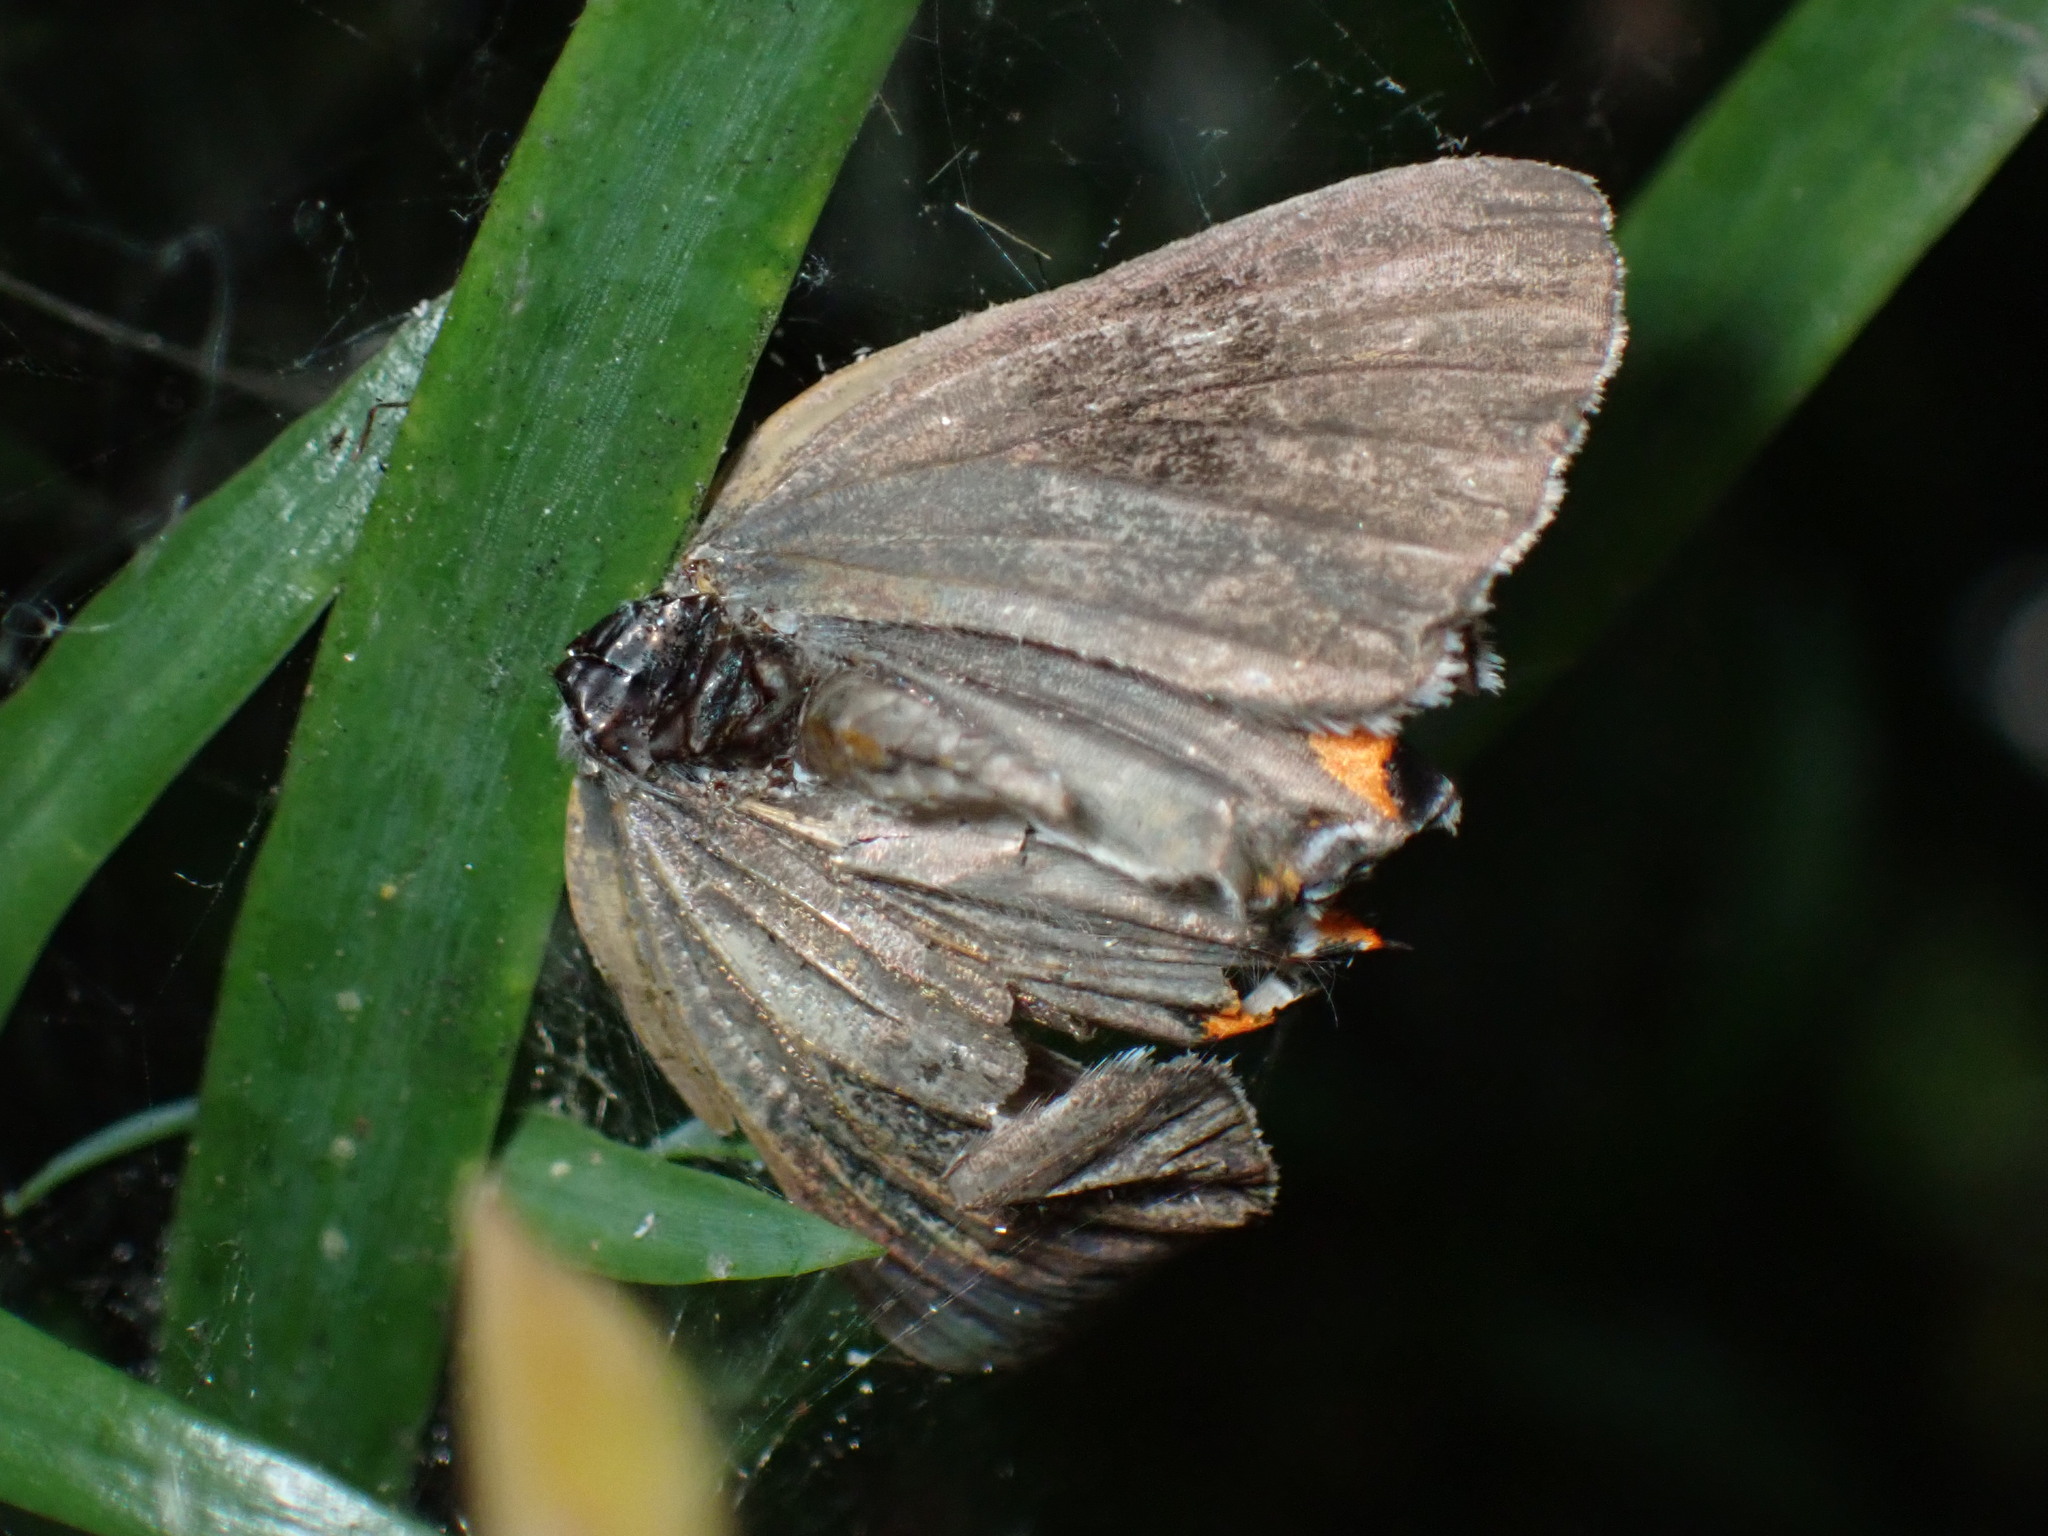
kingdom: Animalia
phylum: Arthropoda
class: Insecta
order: Lepidoptera
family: Lycaenidae
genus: Strymon
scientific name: Strymon melinus
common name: Gray hairstreak
